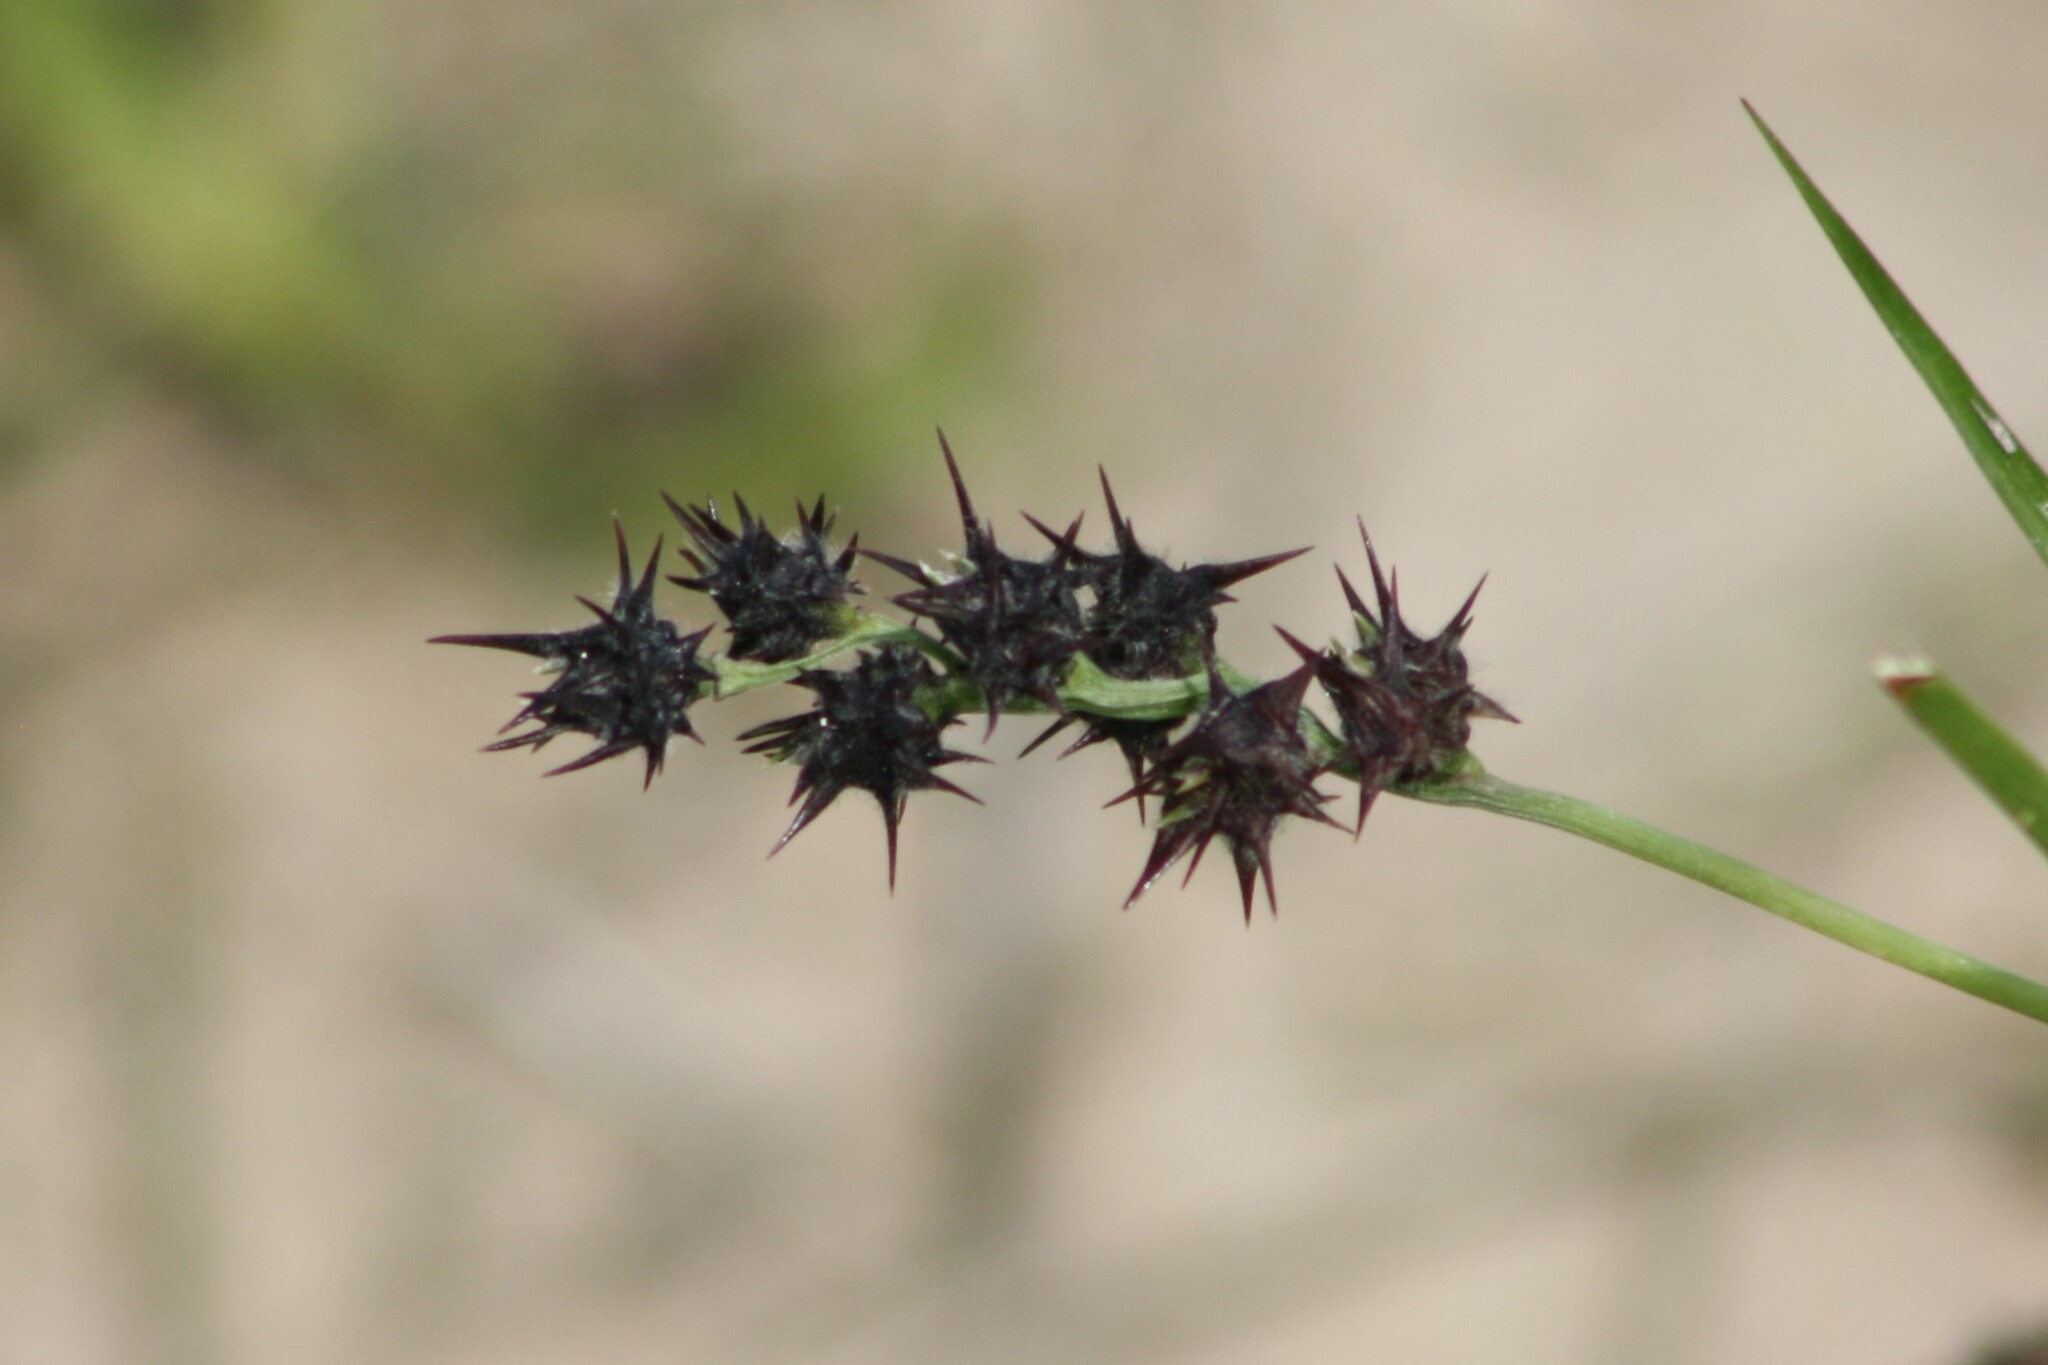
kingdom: Plantae
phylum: Tracheophyta
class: Liliopsida
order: Poales
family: Poaceae
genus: Cenchrus
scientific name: Cenchrus spinifex
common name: Coast sandbur
